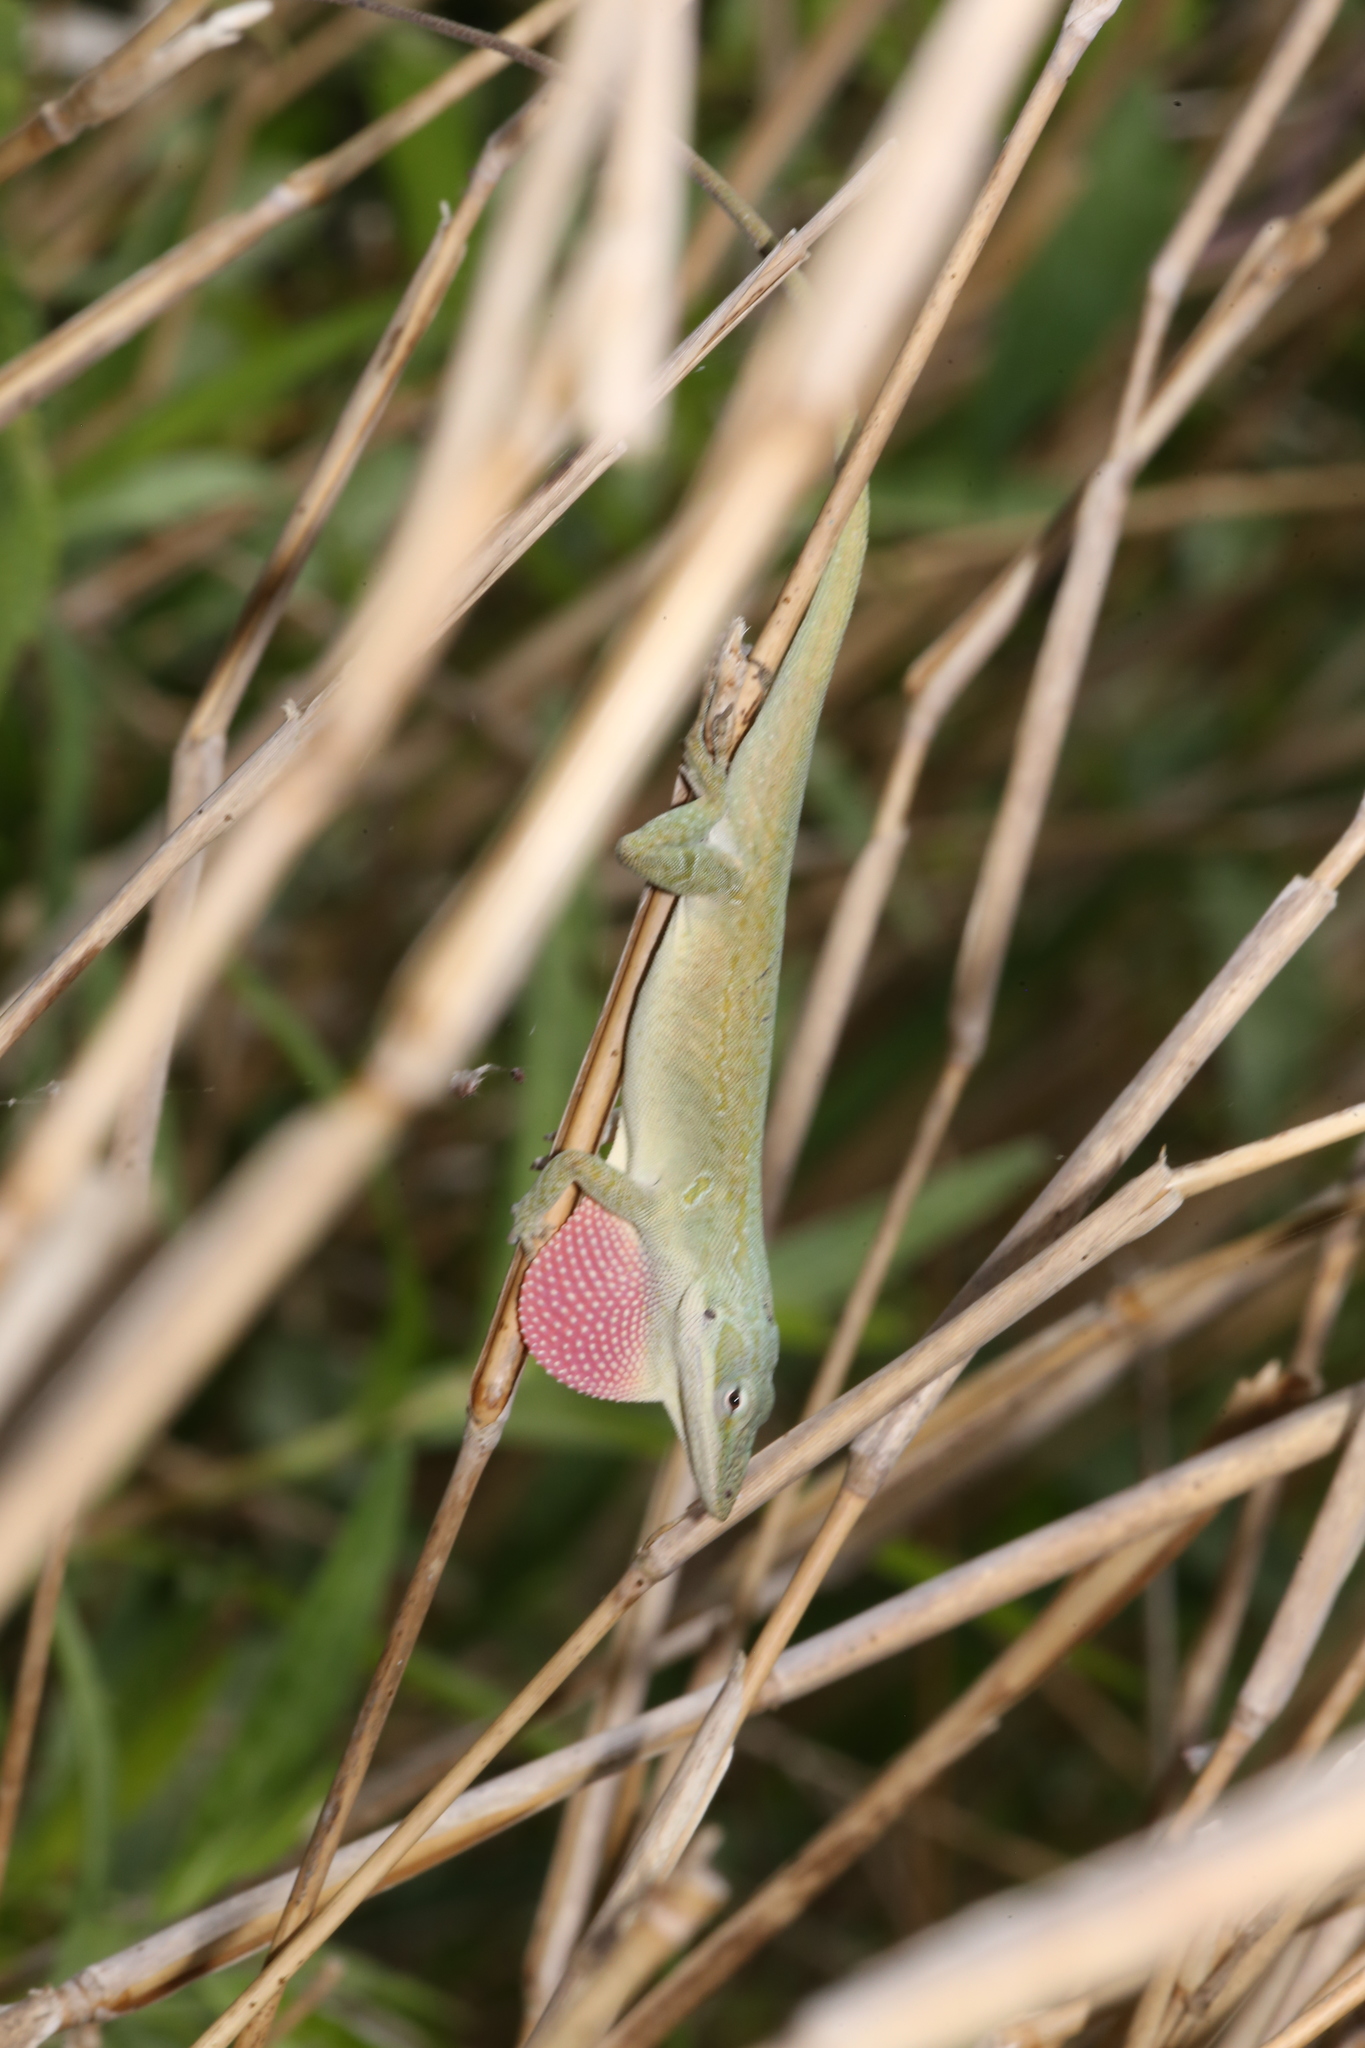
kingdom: Animalia
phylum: Chordata
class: Squamata
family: Dactyloidae
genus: Anolis
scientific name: Anolis carolinensis
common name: Green anole
